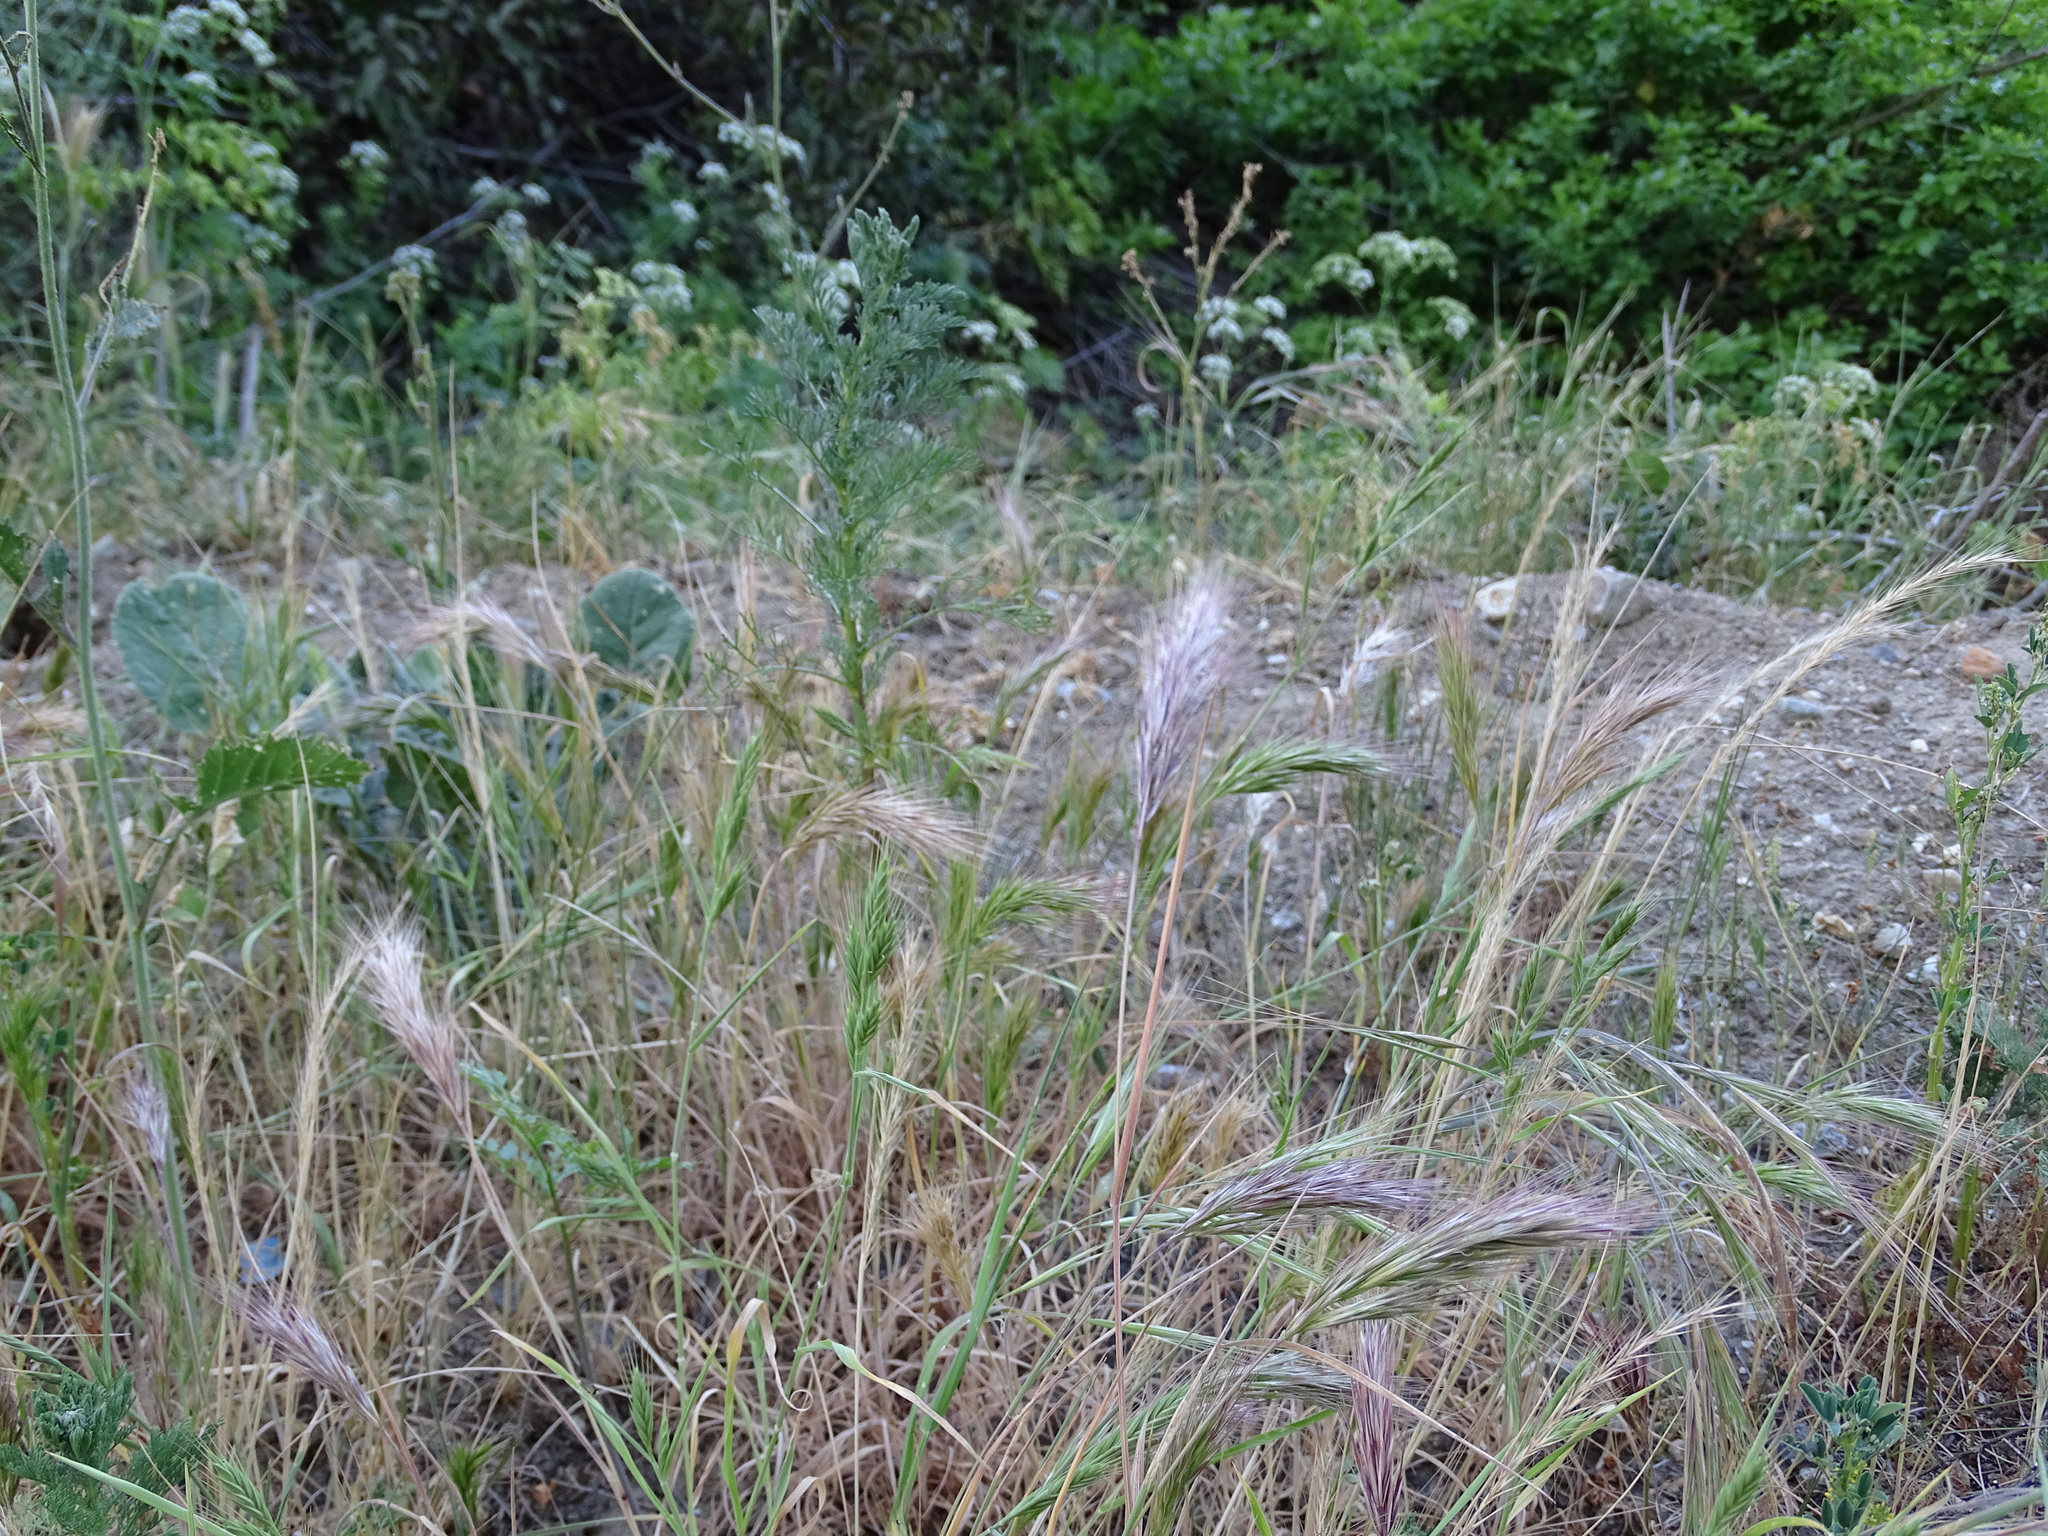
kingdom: Plantae
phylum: Tracheophyta
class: Liliopsida
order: Poales
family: Poaceae
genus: Bromus
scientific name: Bromus madritensis
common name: Compact brome
